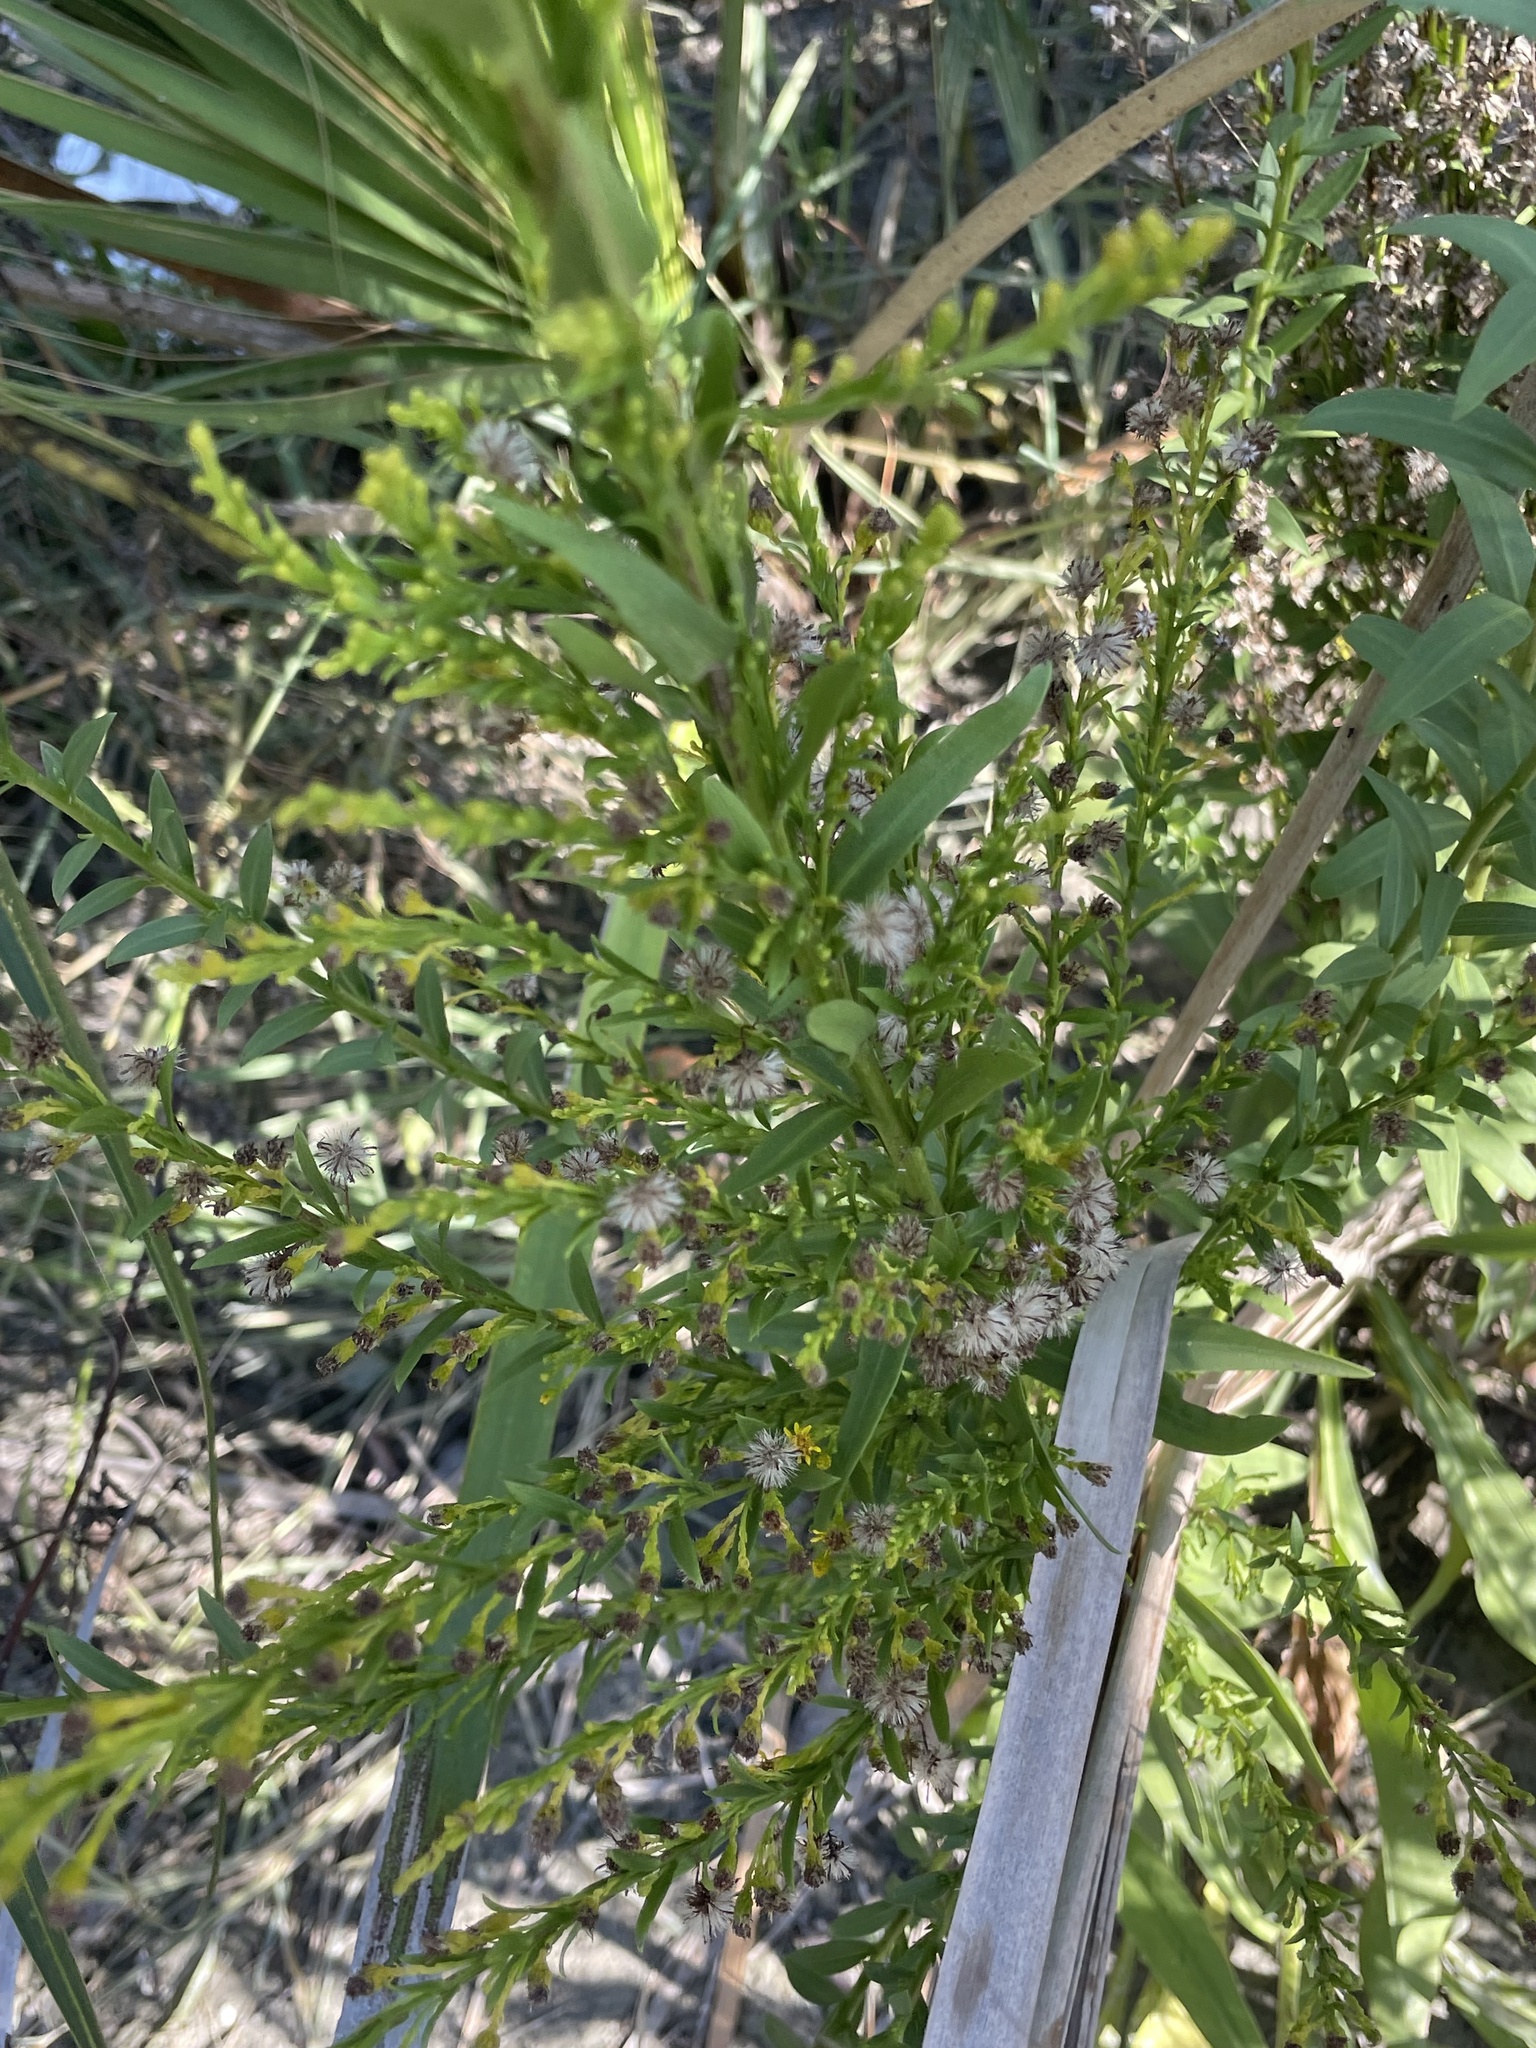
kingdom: Plantae
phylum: Tracheophyta
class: Magnoliopsida
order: Asterales
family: Asteraceae
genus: Solidago
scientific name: Solidago mexicana
